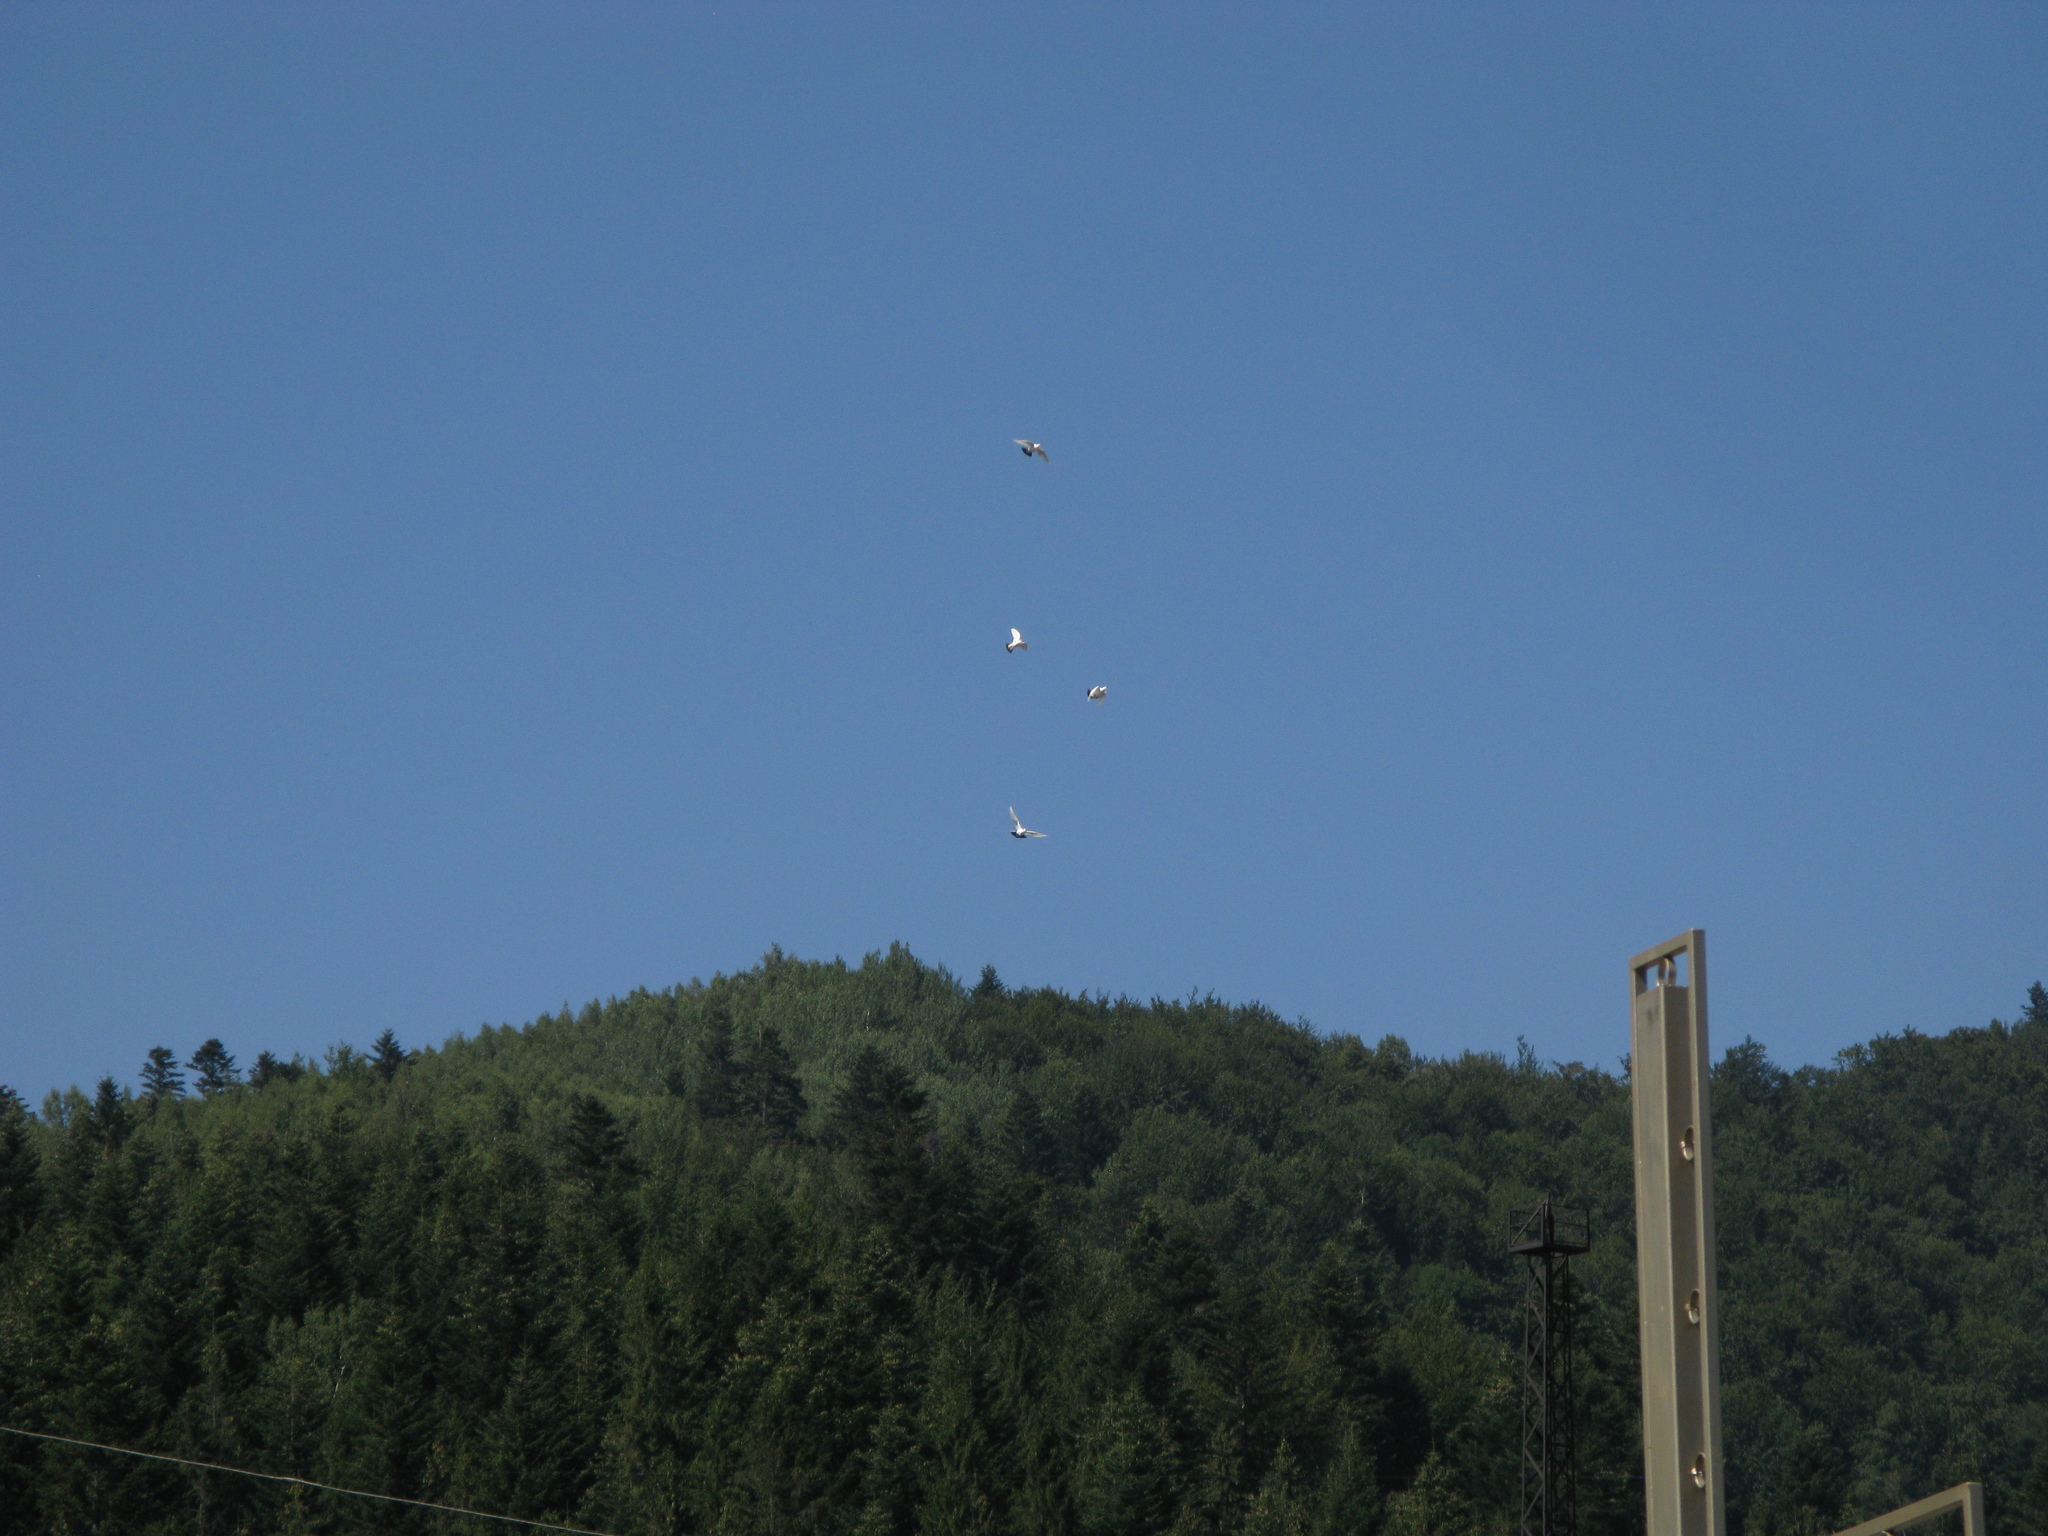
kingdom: Animalia
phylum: Chordata
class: Aves
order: Columbiformes
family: Columbidae
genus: Columba
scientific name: Columba livia
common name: Rock pigeon
